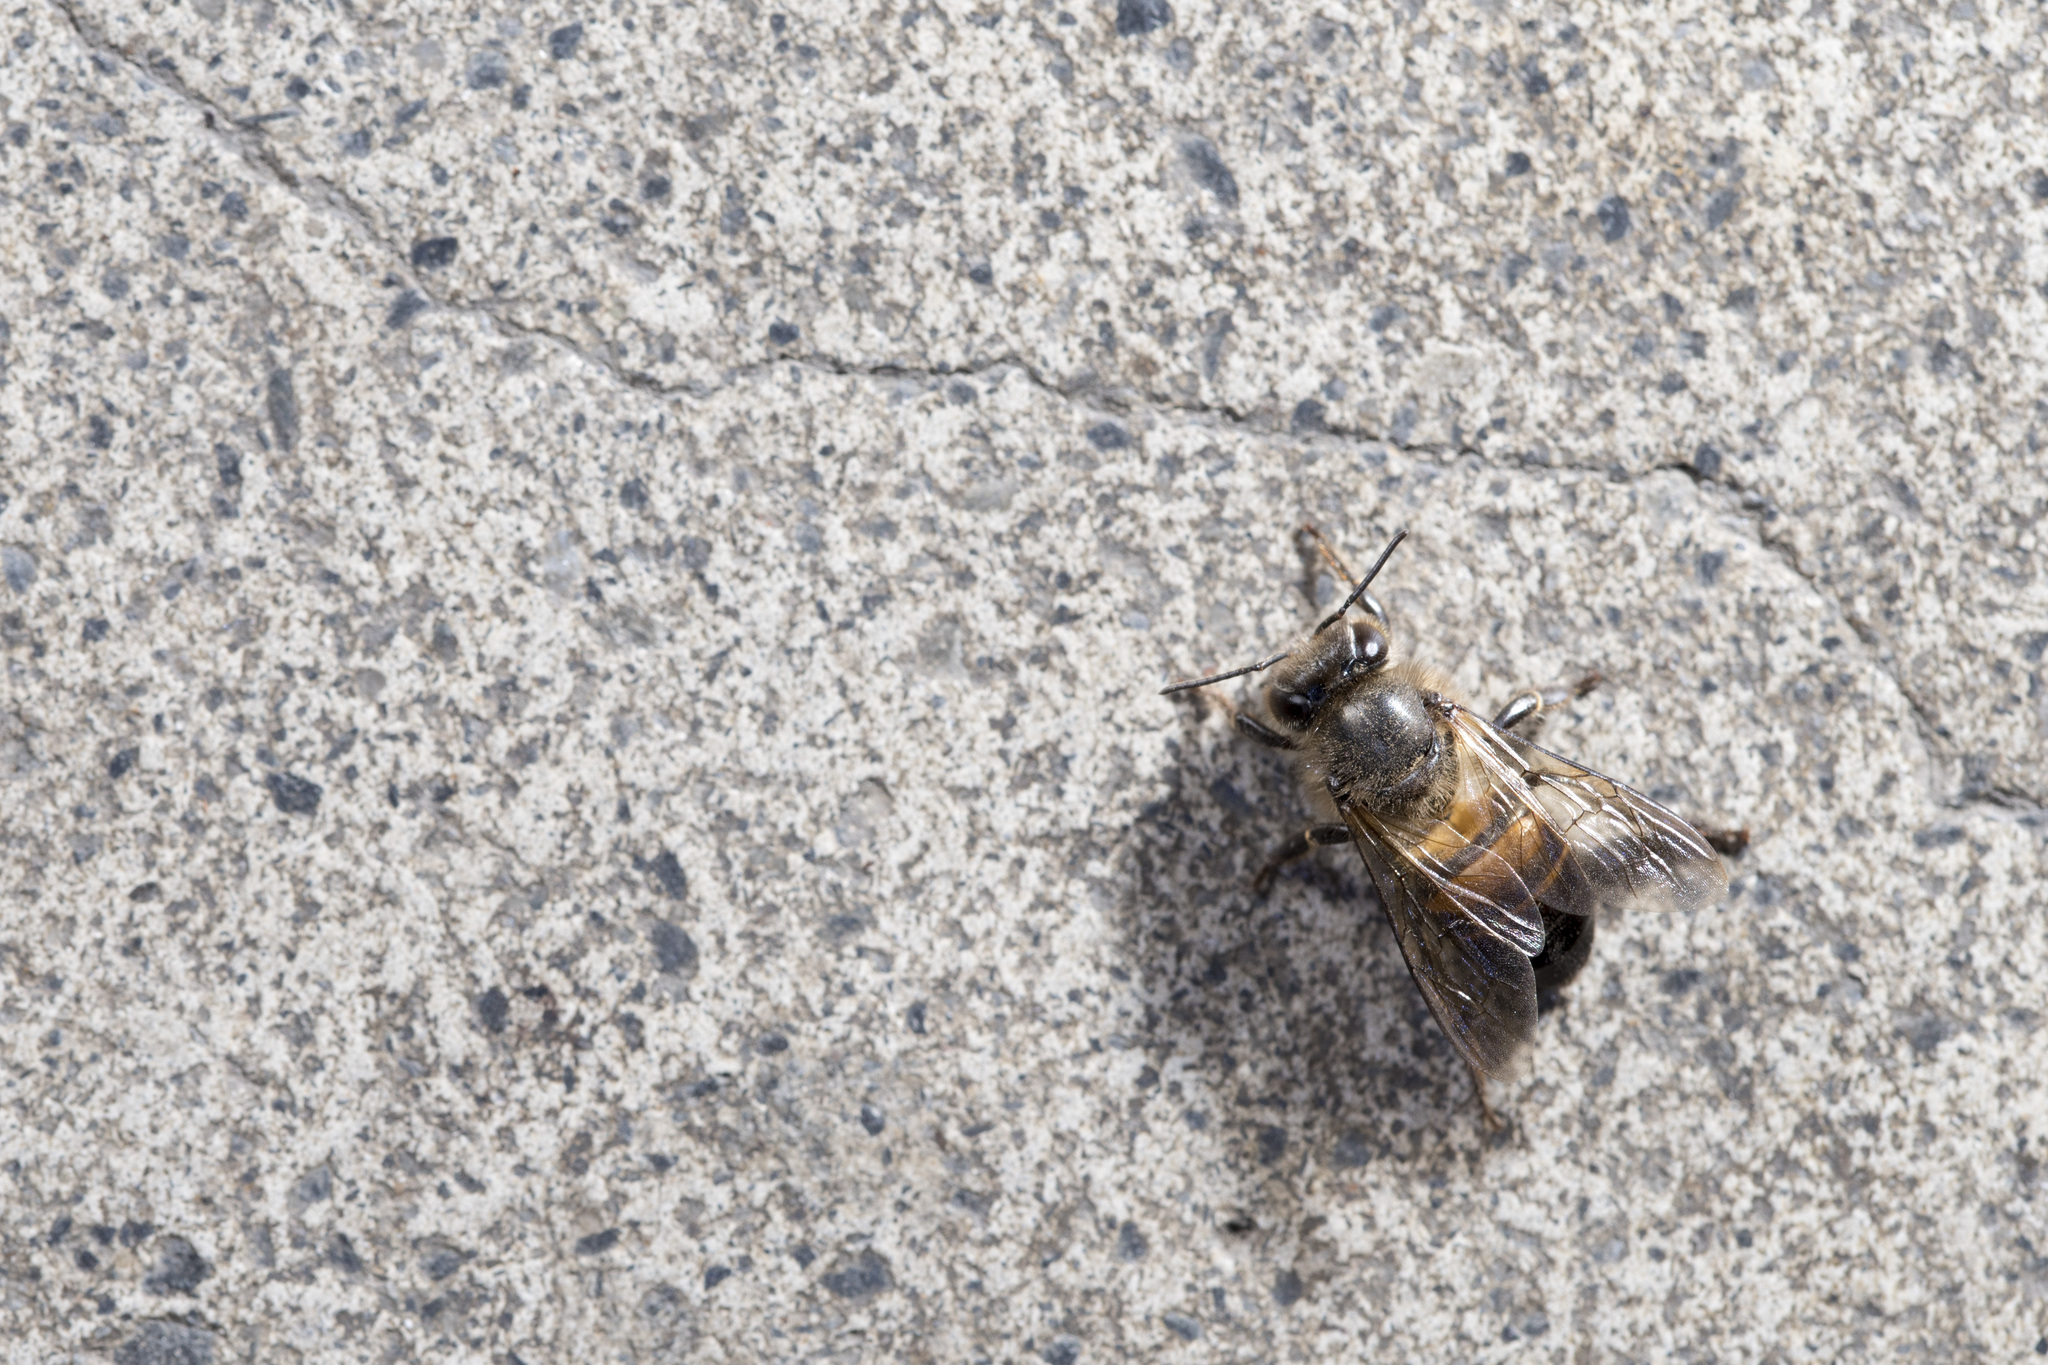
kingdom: Animalia
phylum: Arthropoda
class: Insecta
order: Hymenoptera
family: Apidae
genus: Apis
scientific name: Apis cerana
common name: Honey bee
